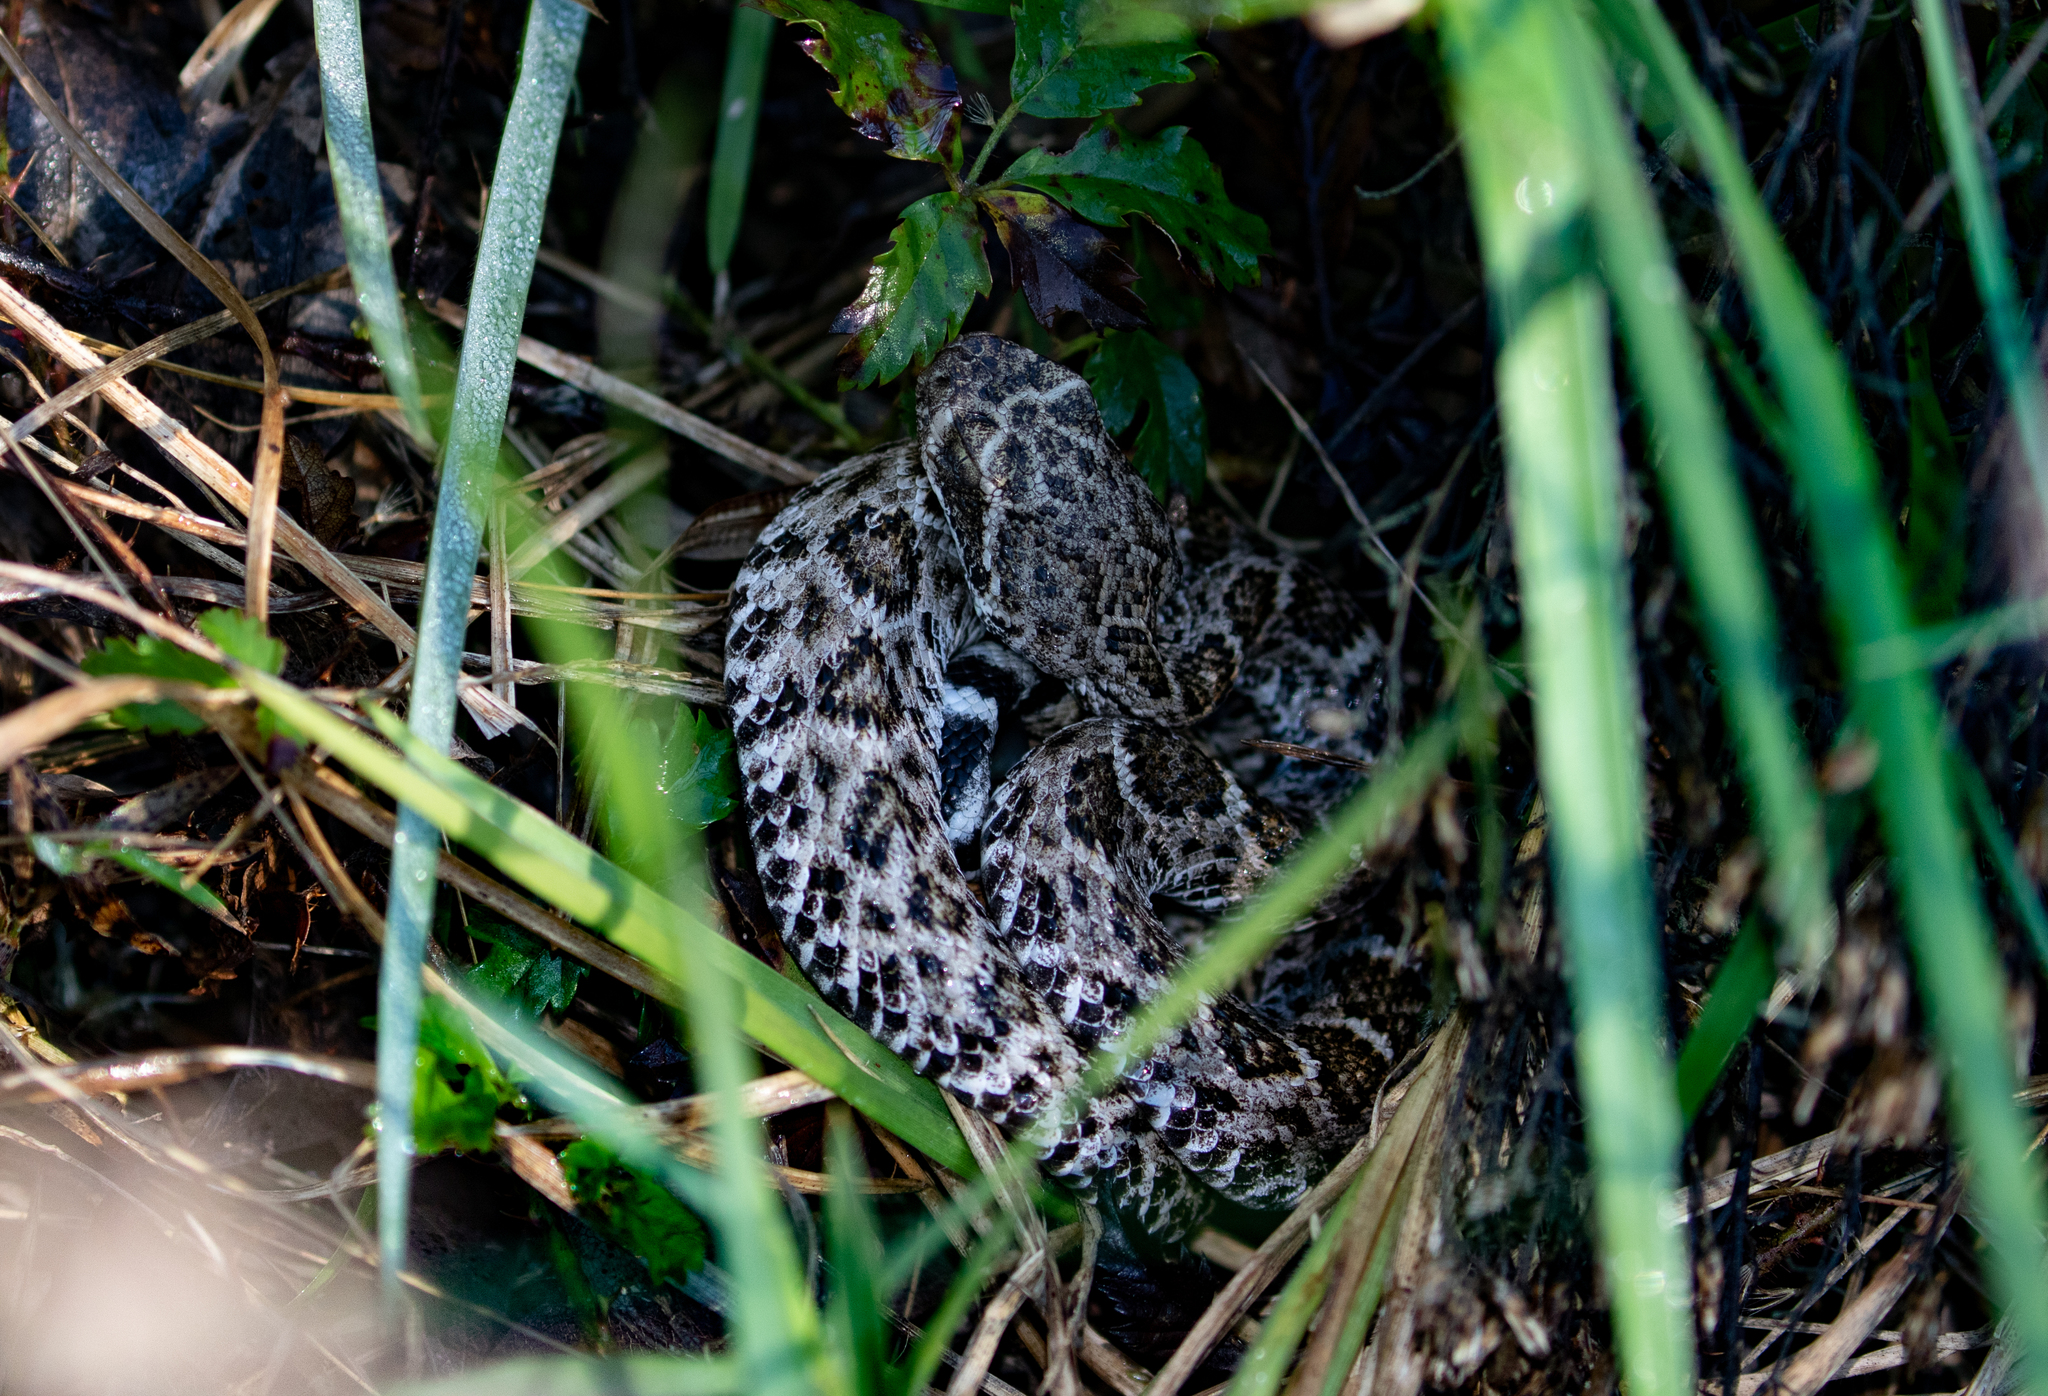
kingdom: Animalia
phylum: Chordata
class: Squamata
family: Viperidae
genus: Crotalus
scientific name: Crotalus atrox
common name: Western diamond-backed rattlesnake
